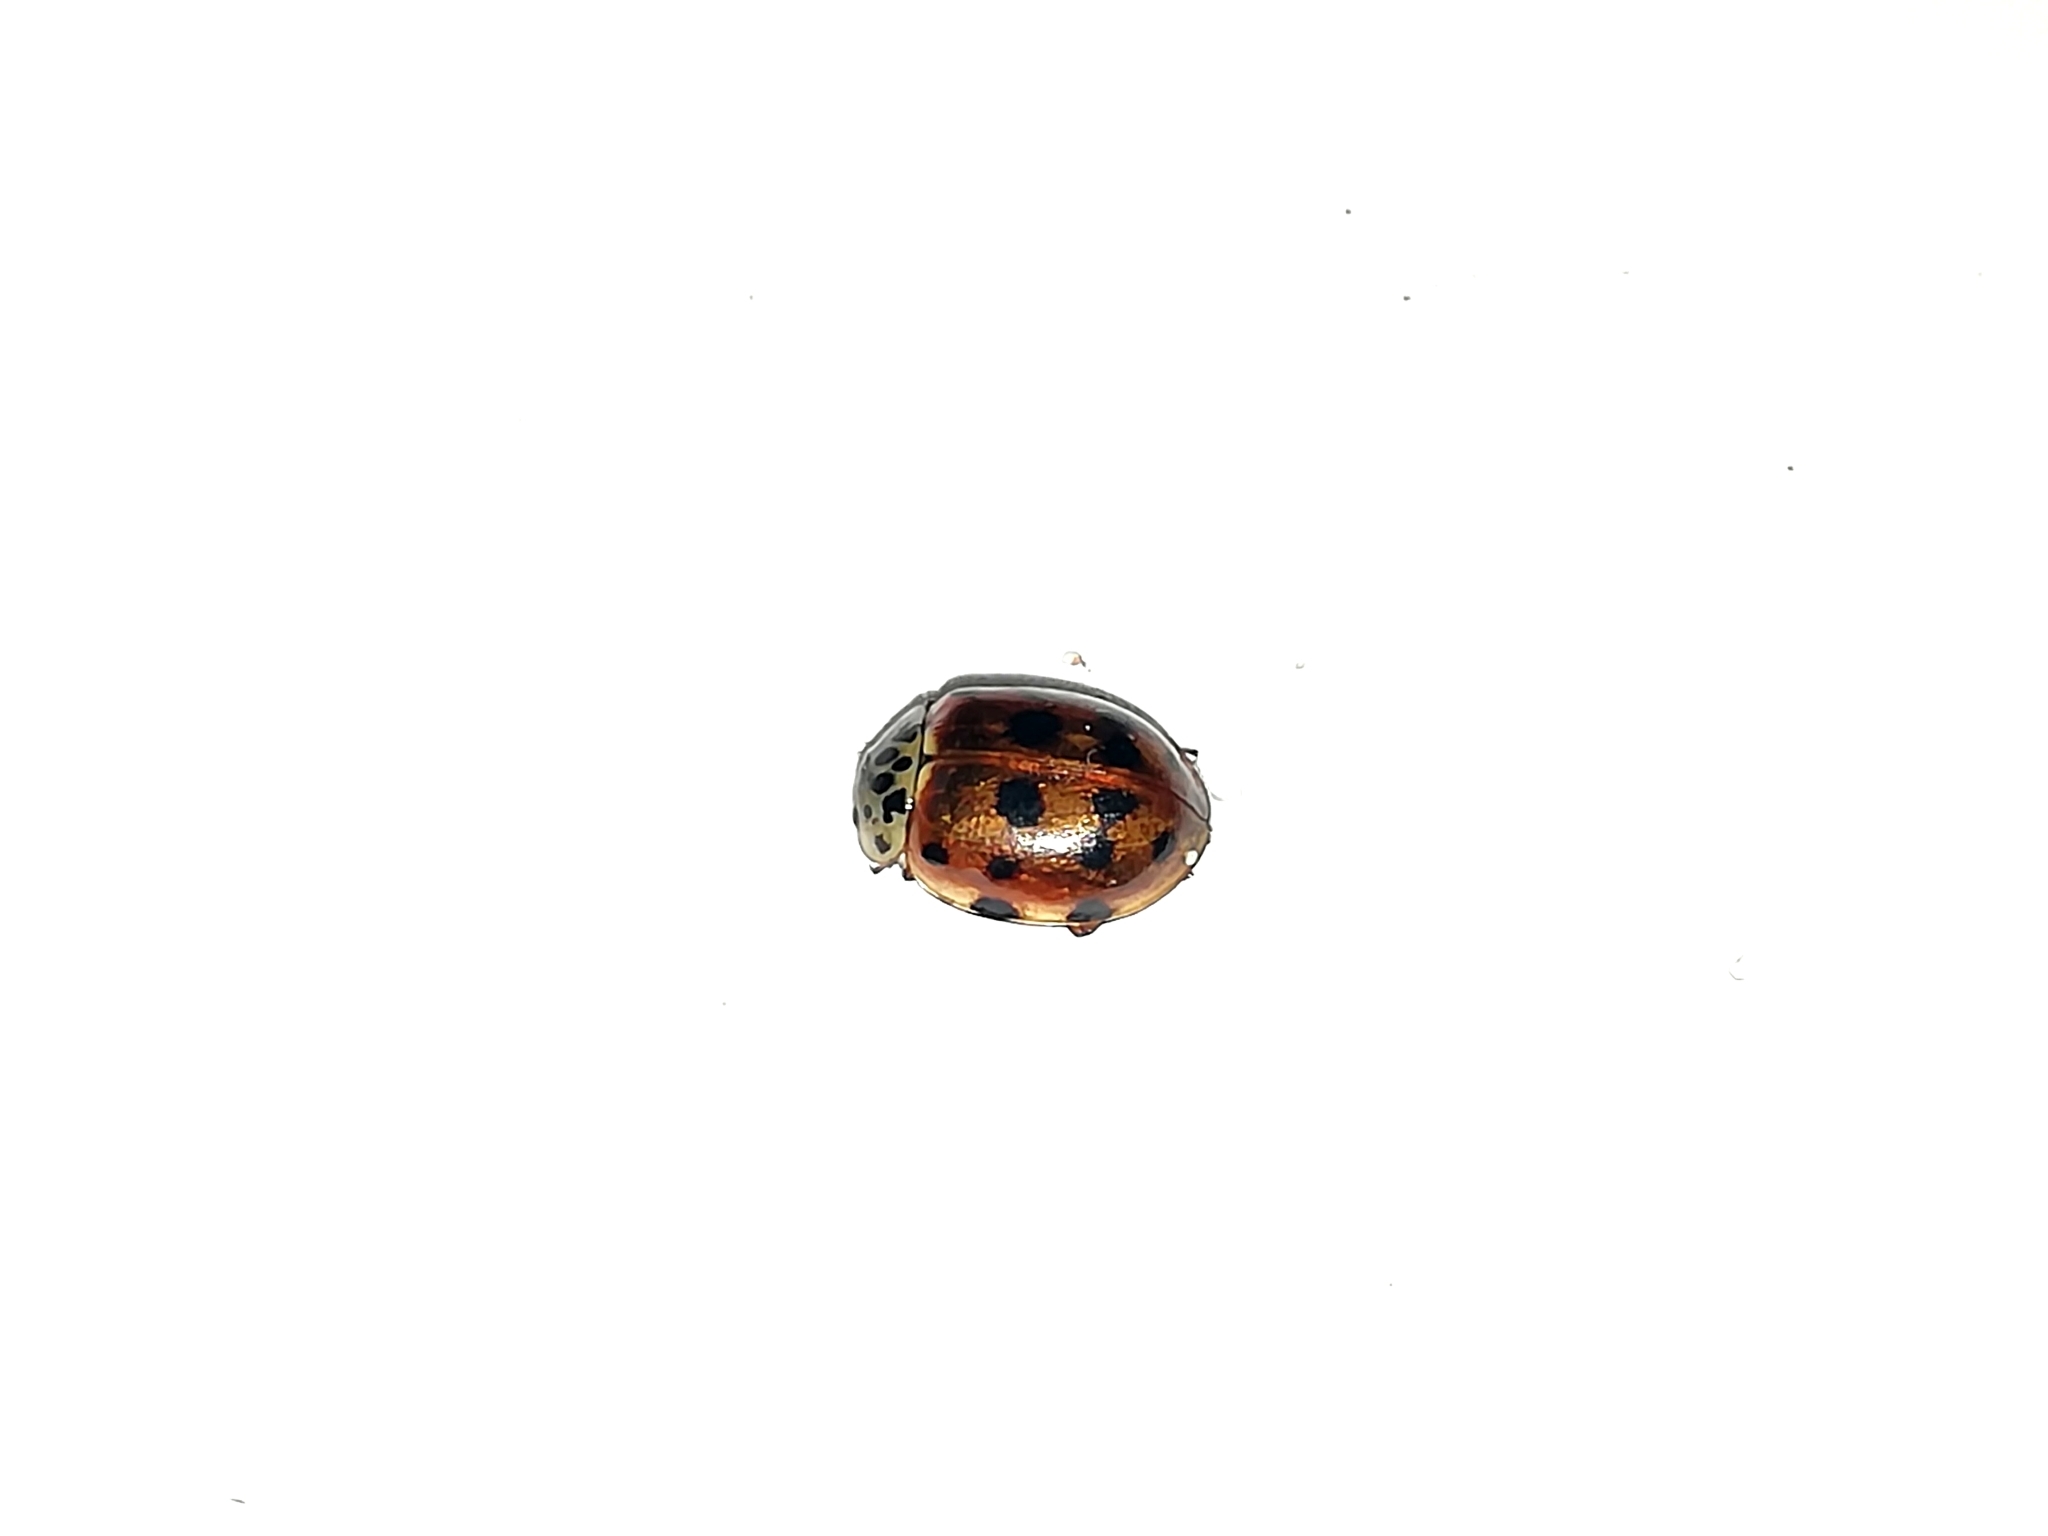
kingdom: Animalia
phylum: Arthropoda
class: Insecta
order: Coleoptera
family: Coccinellidae
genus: Harmonia
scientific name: Harmonia quadripunctata
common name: Cream-streaked ladybird
